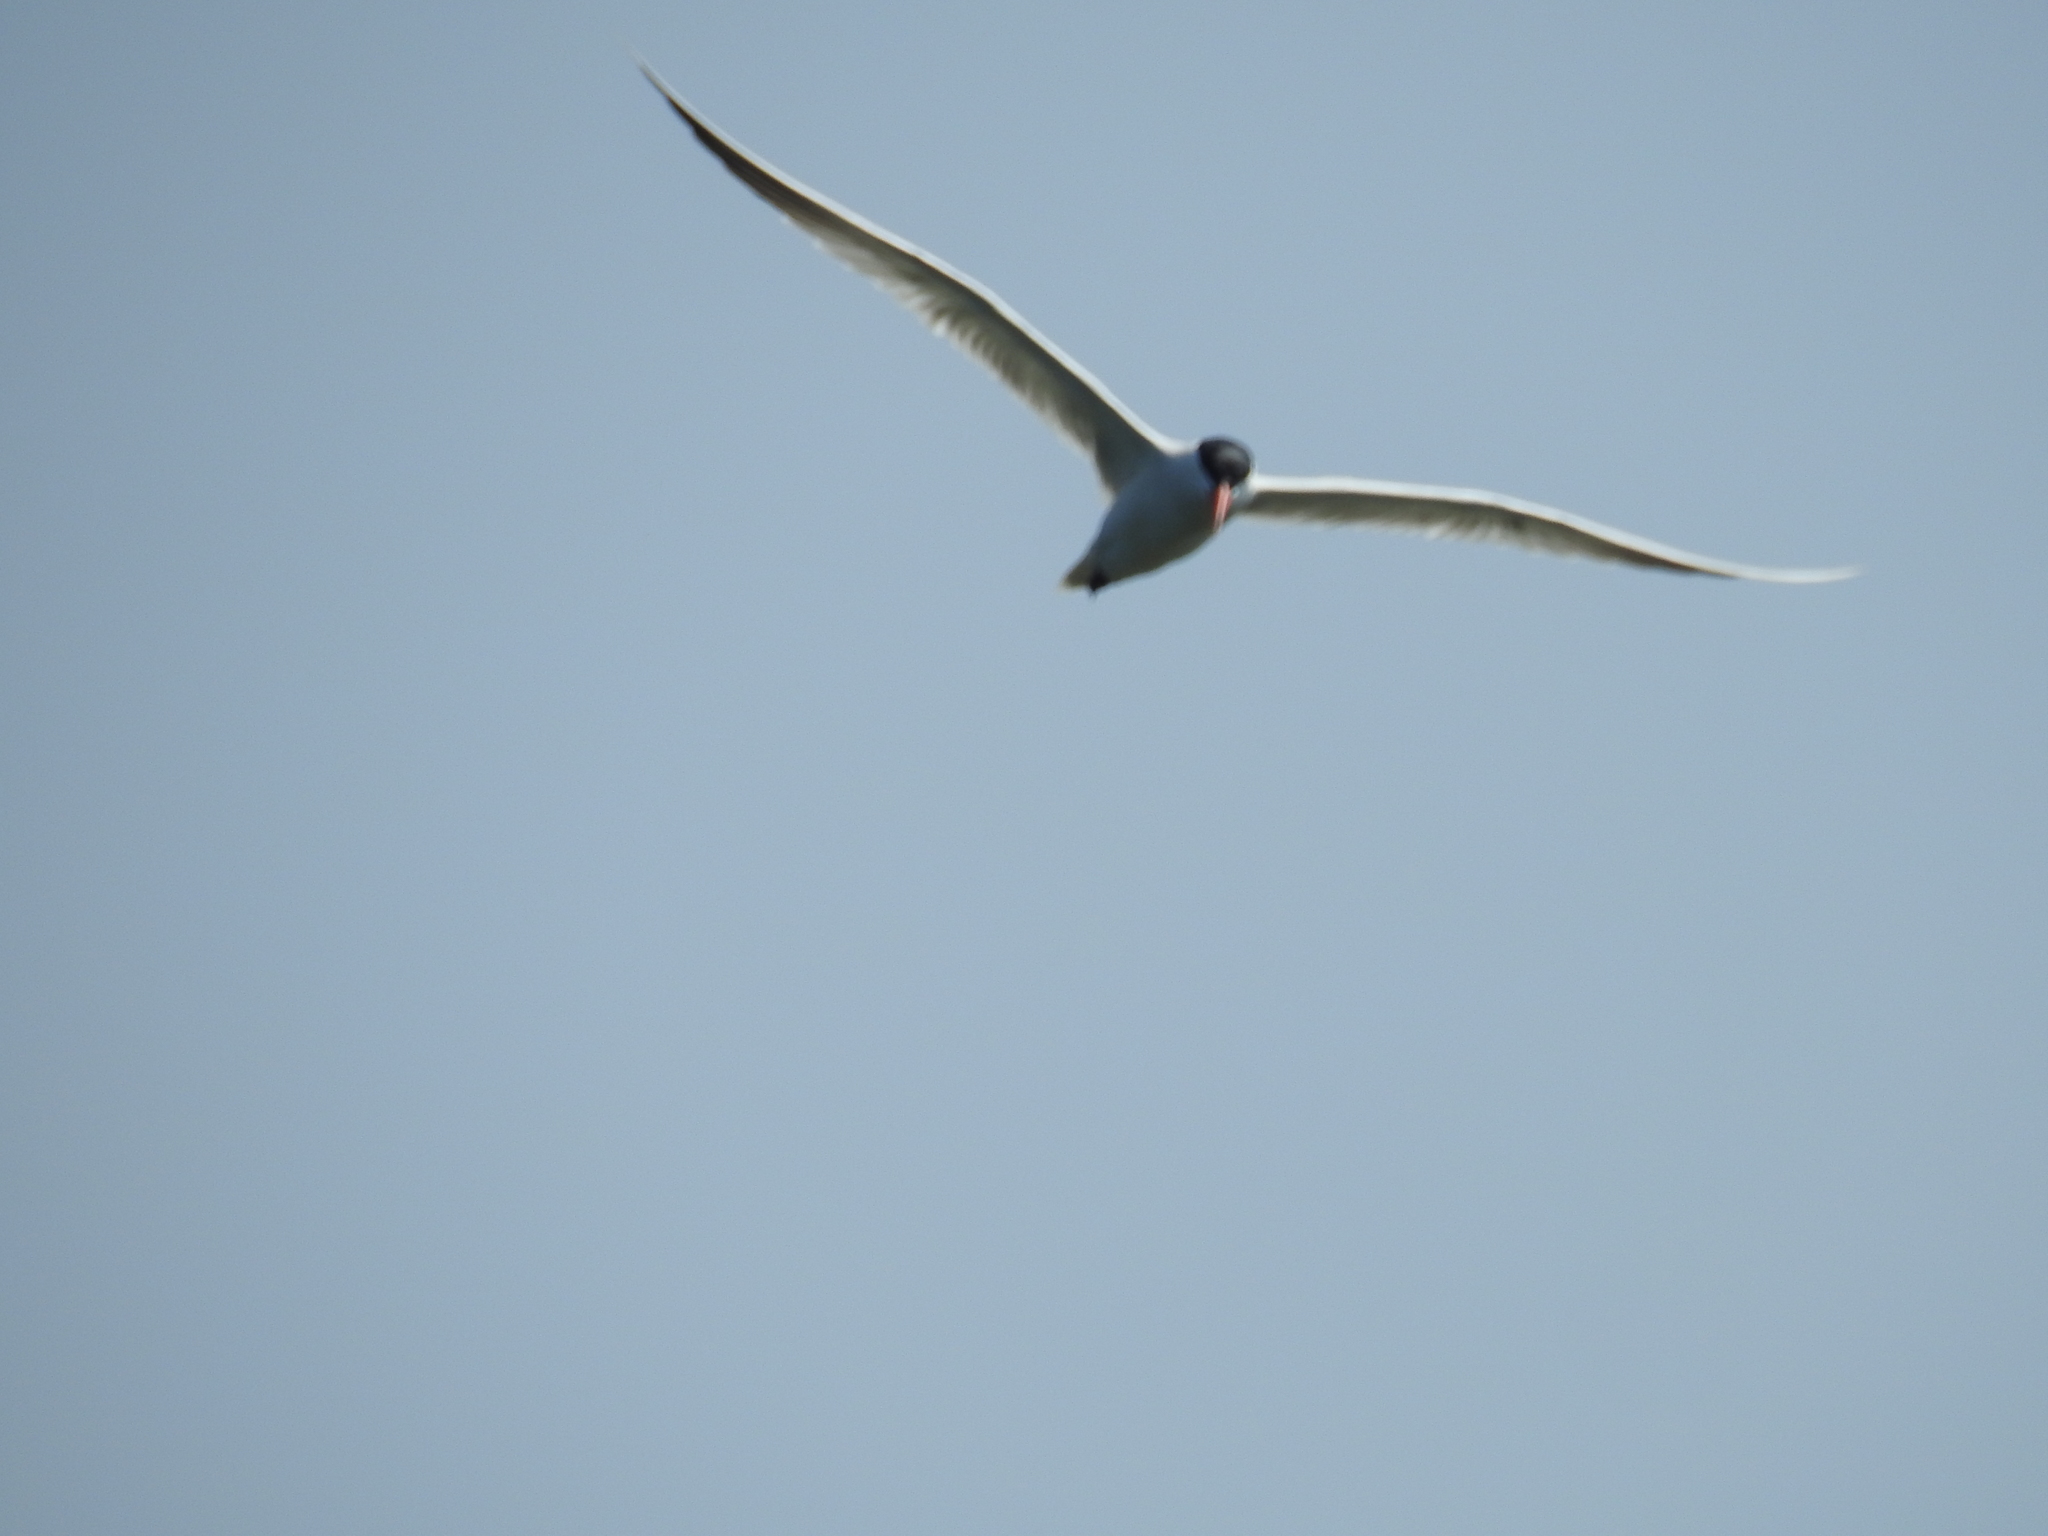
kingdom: Animalia
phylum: Chordata
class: Aves
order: Charadriiformes
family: Laridae
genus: Hydroprogne
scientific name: Hydroprogne caspia
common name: Caspian tern
